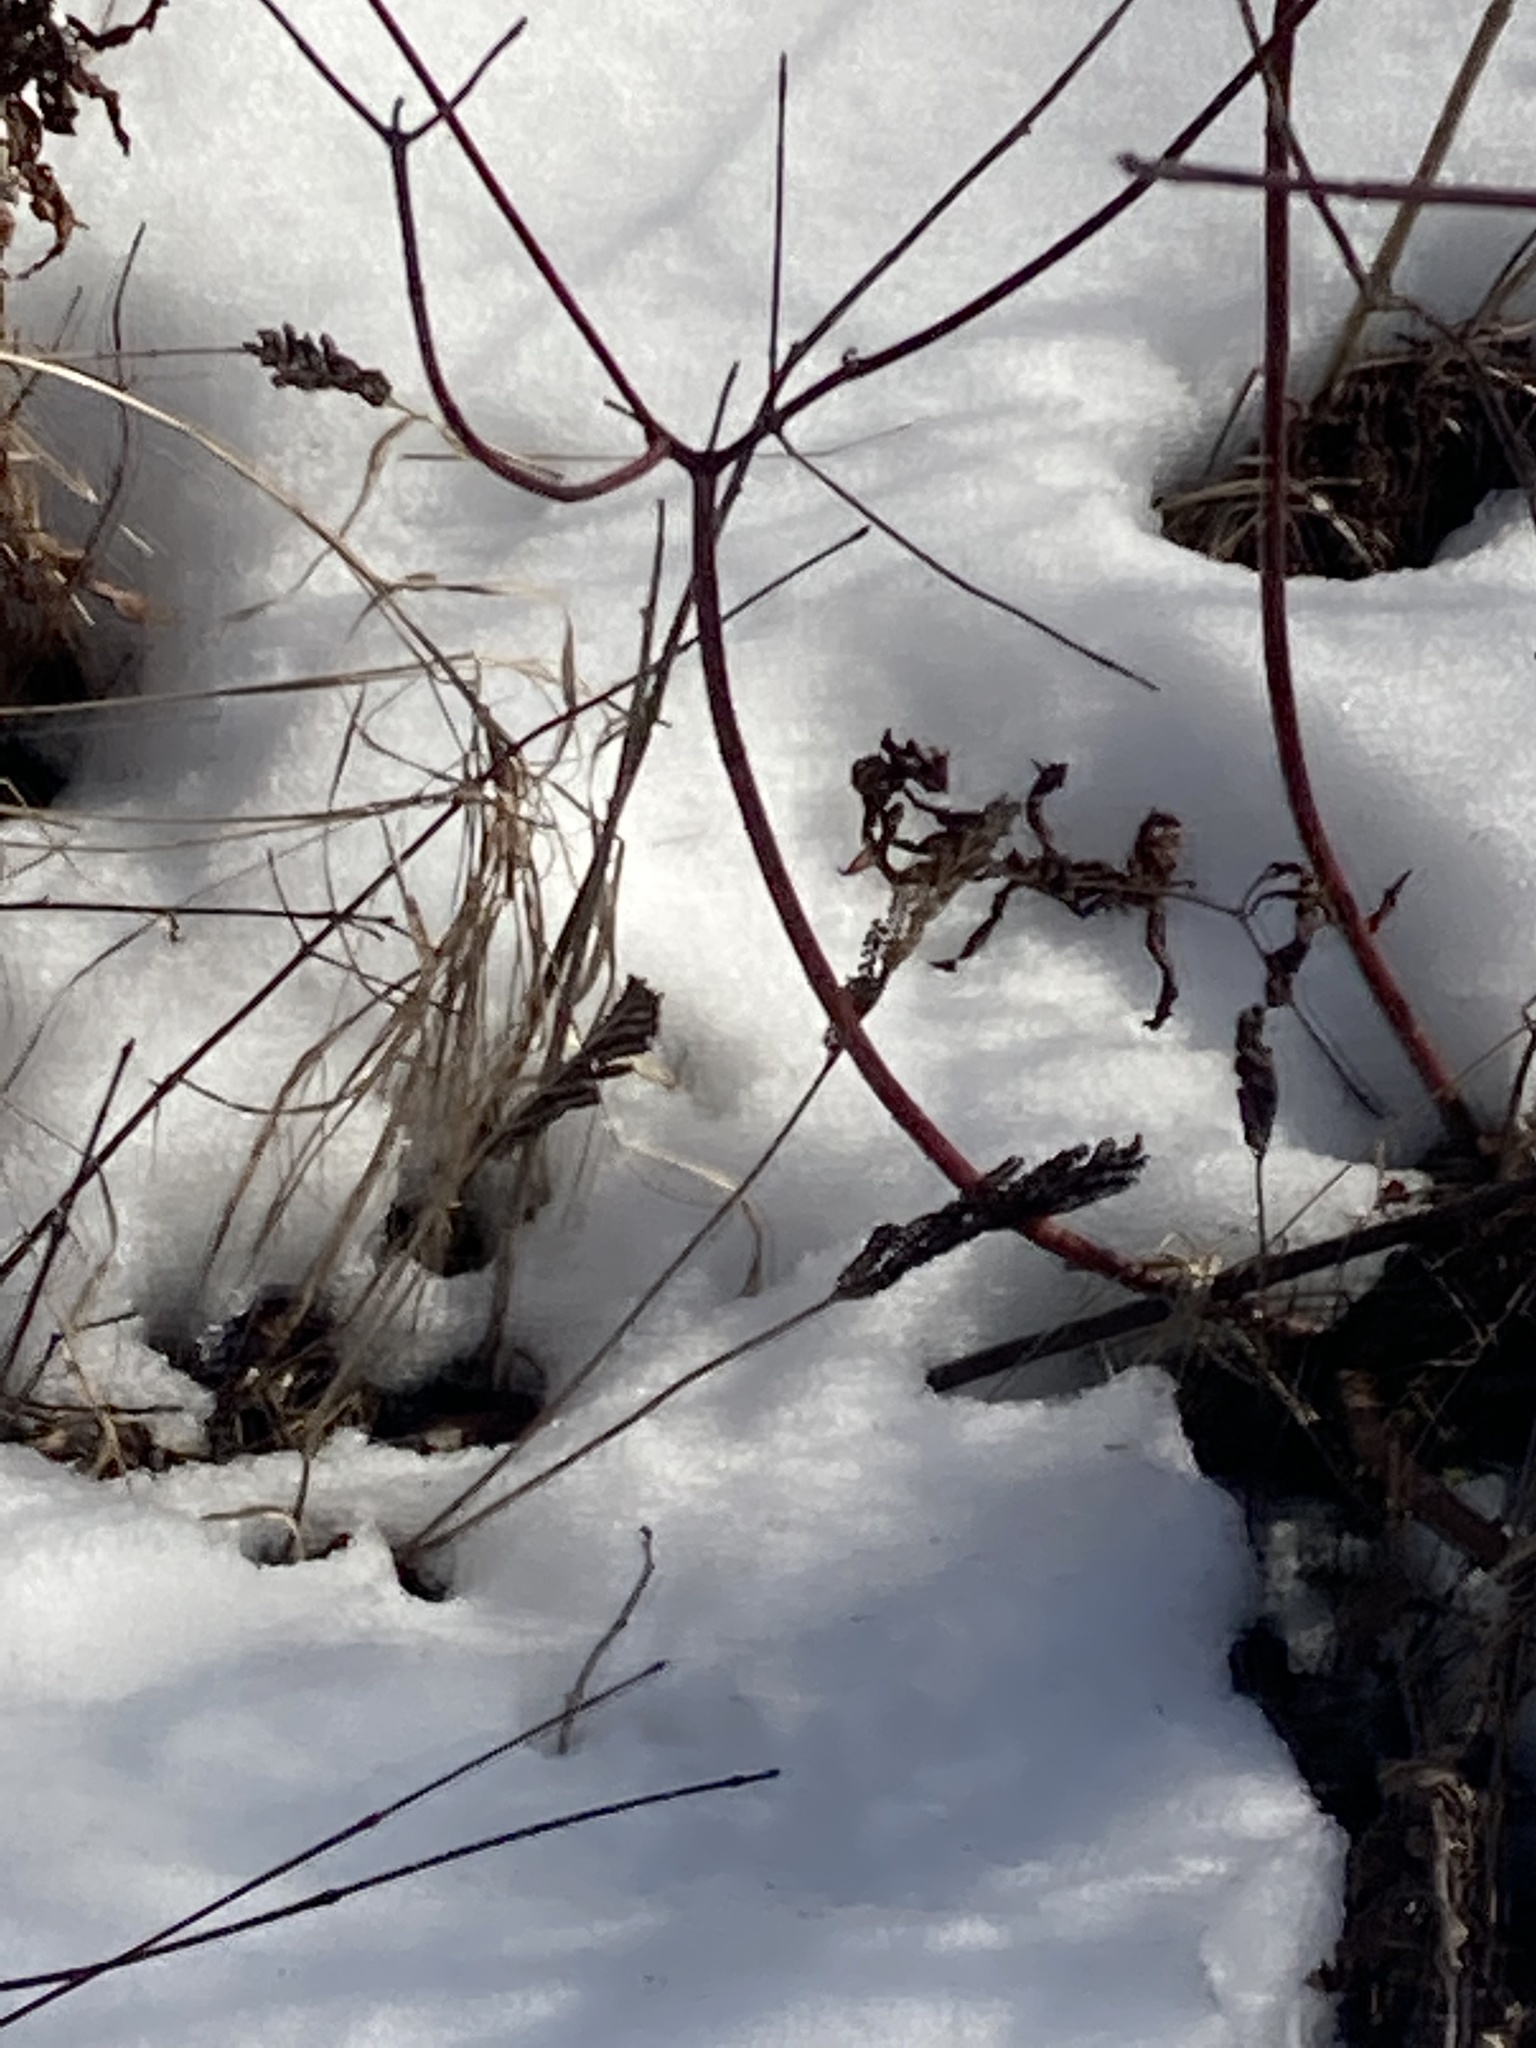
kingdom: Plantae
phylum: Tracheophyta
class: Polypodiopsida
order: Polypodiales
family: Onocleaceae
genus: Onoclea
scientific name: Onoclea sensibilis
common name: Sensitive fern
